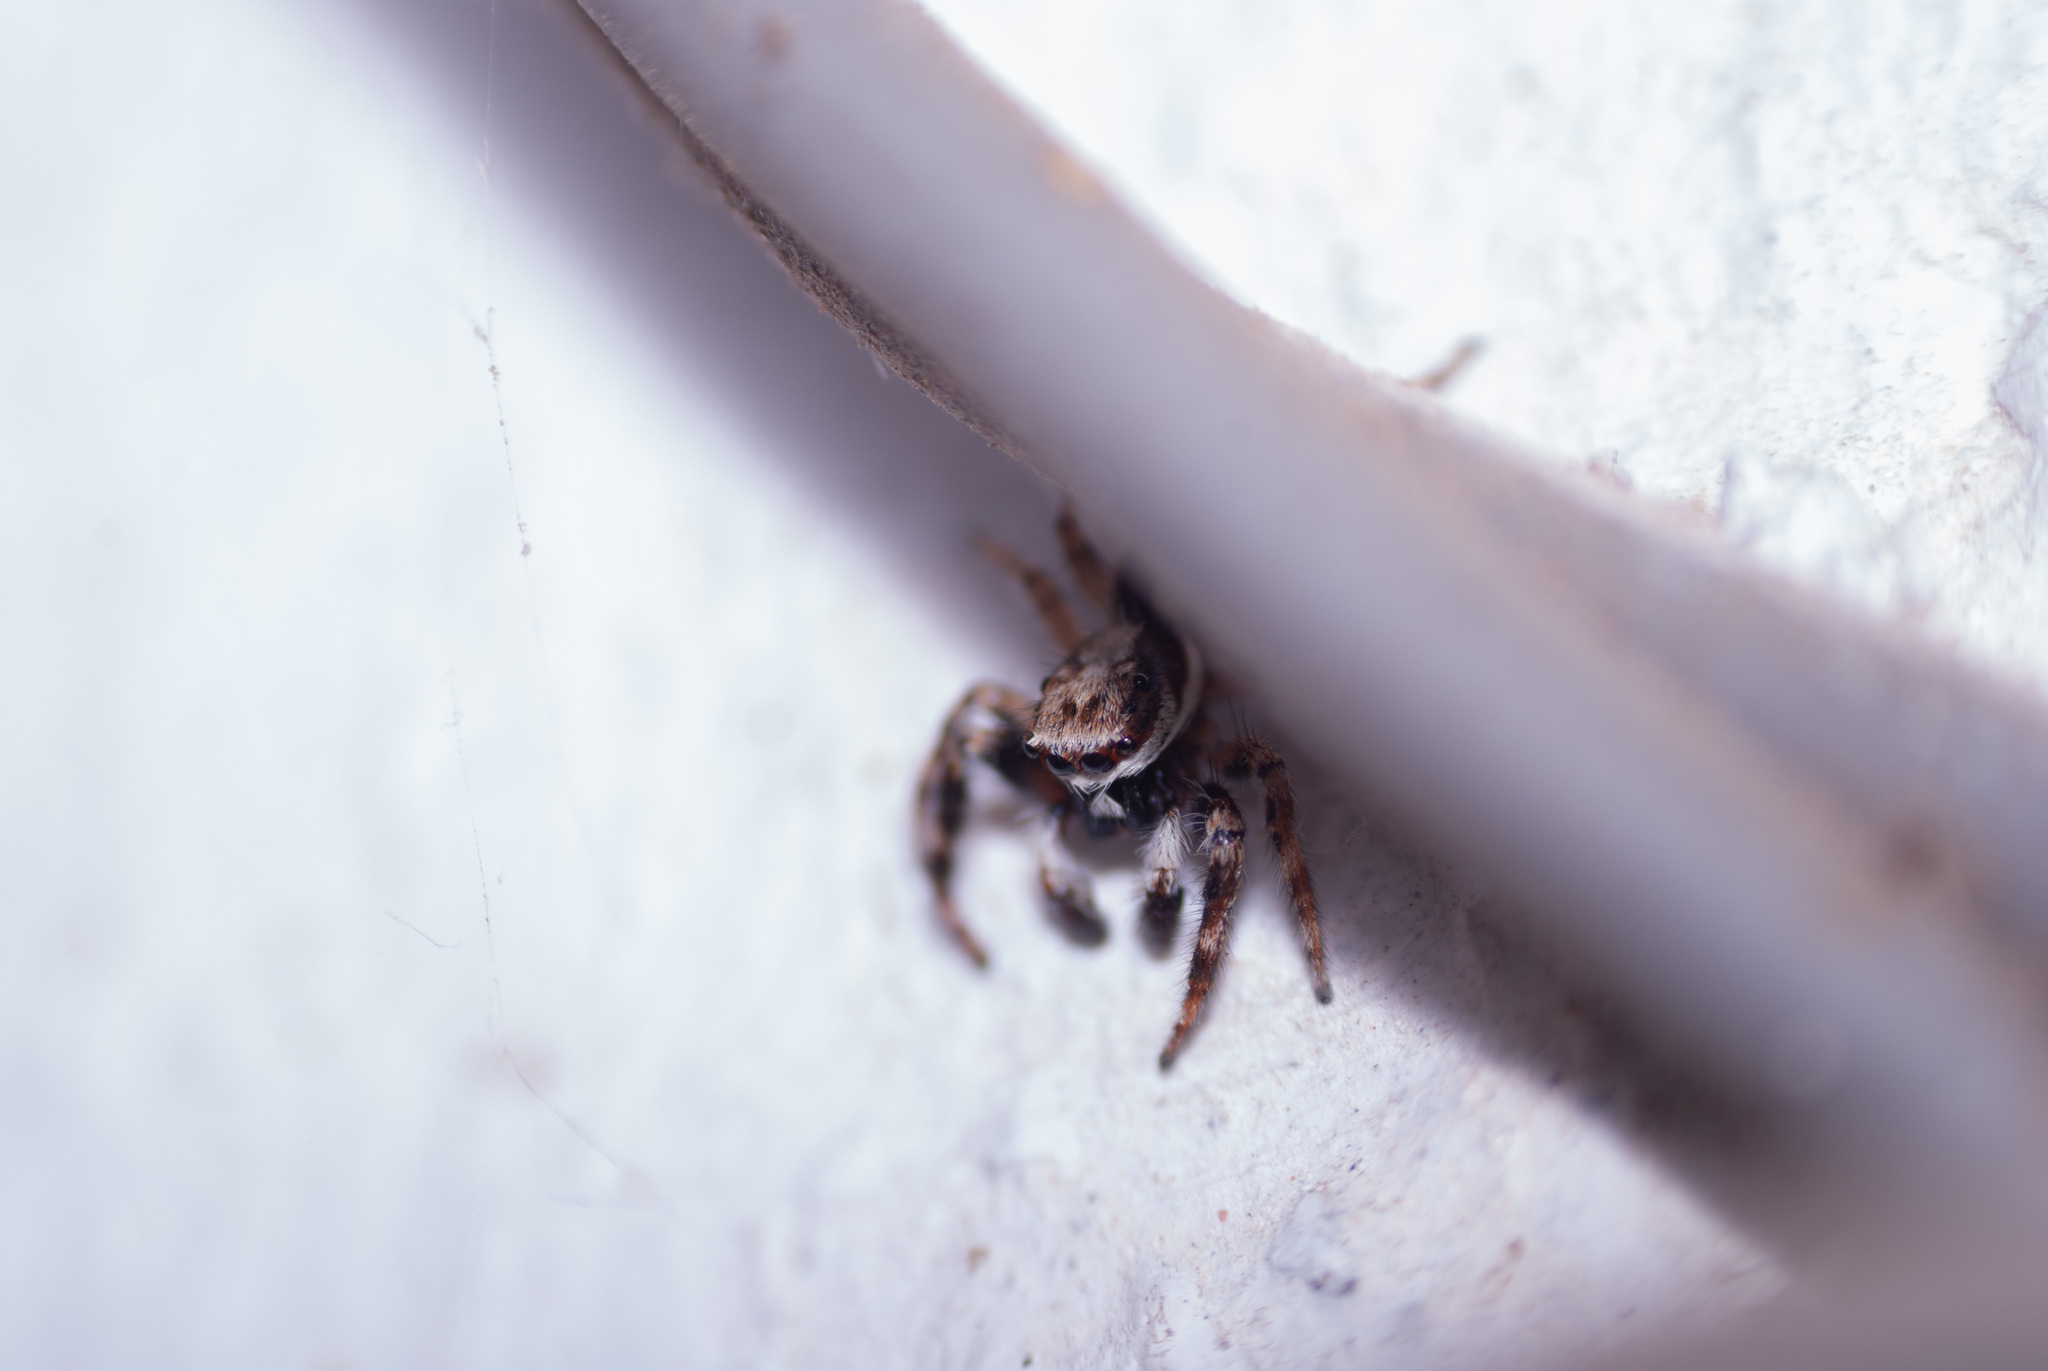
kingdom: Animalia
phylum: Arthropoda
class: Arachnida
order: Araneae
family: Salticidae
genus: Menemerus
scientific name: Menemerus bivittatus
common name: Gray wall jumper
